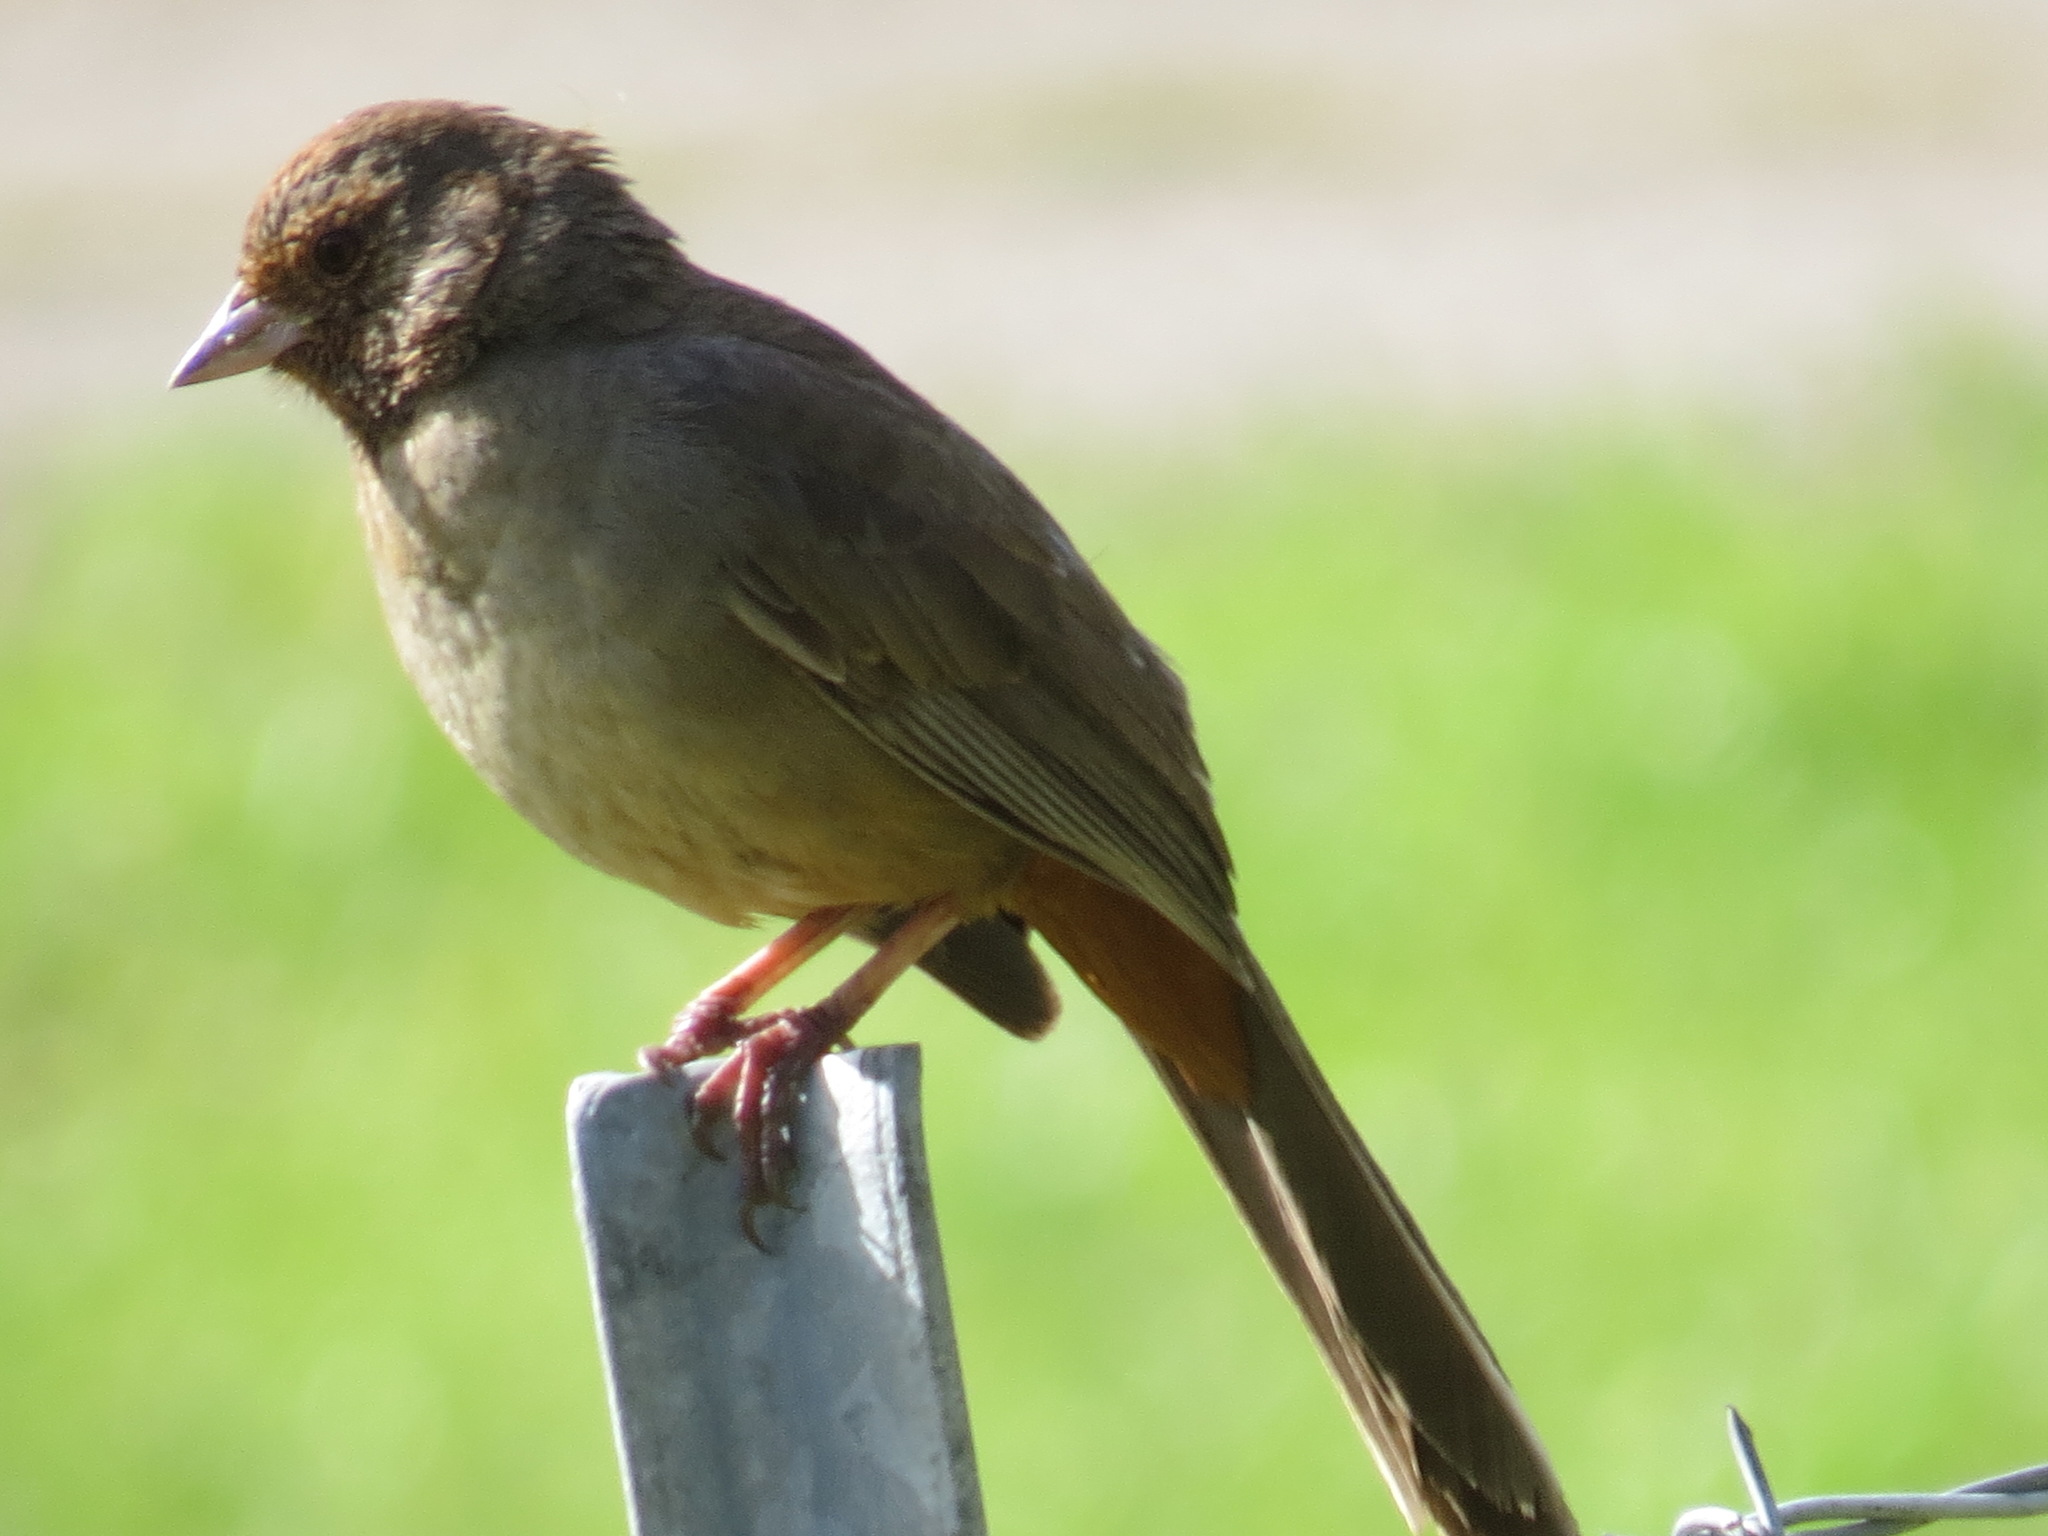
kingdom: Animalia
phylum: Chordata
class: Aves
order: Passeriformes
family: Passerellidae
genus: Melozone
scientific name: Melozone crissalis
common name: California towhee
